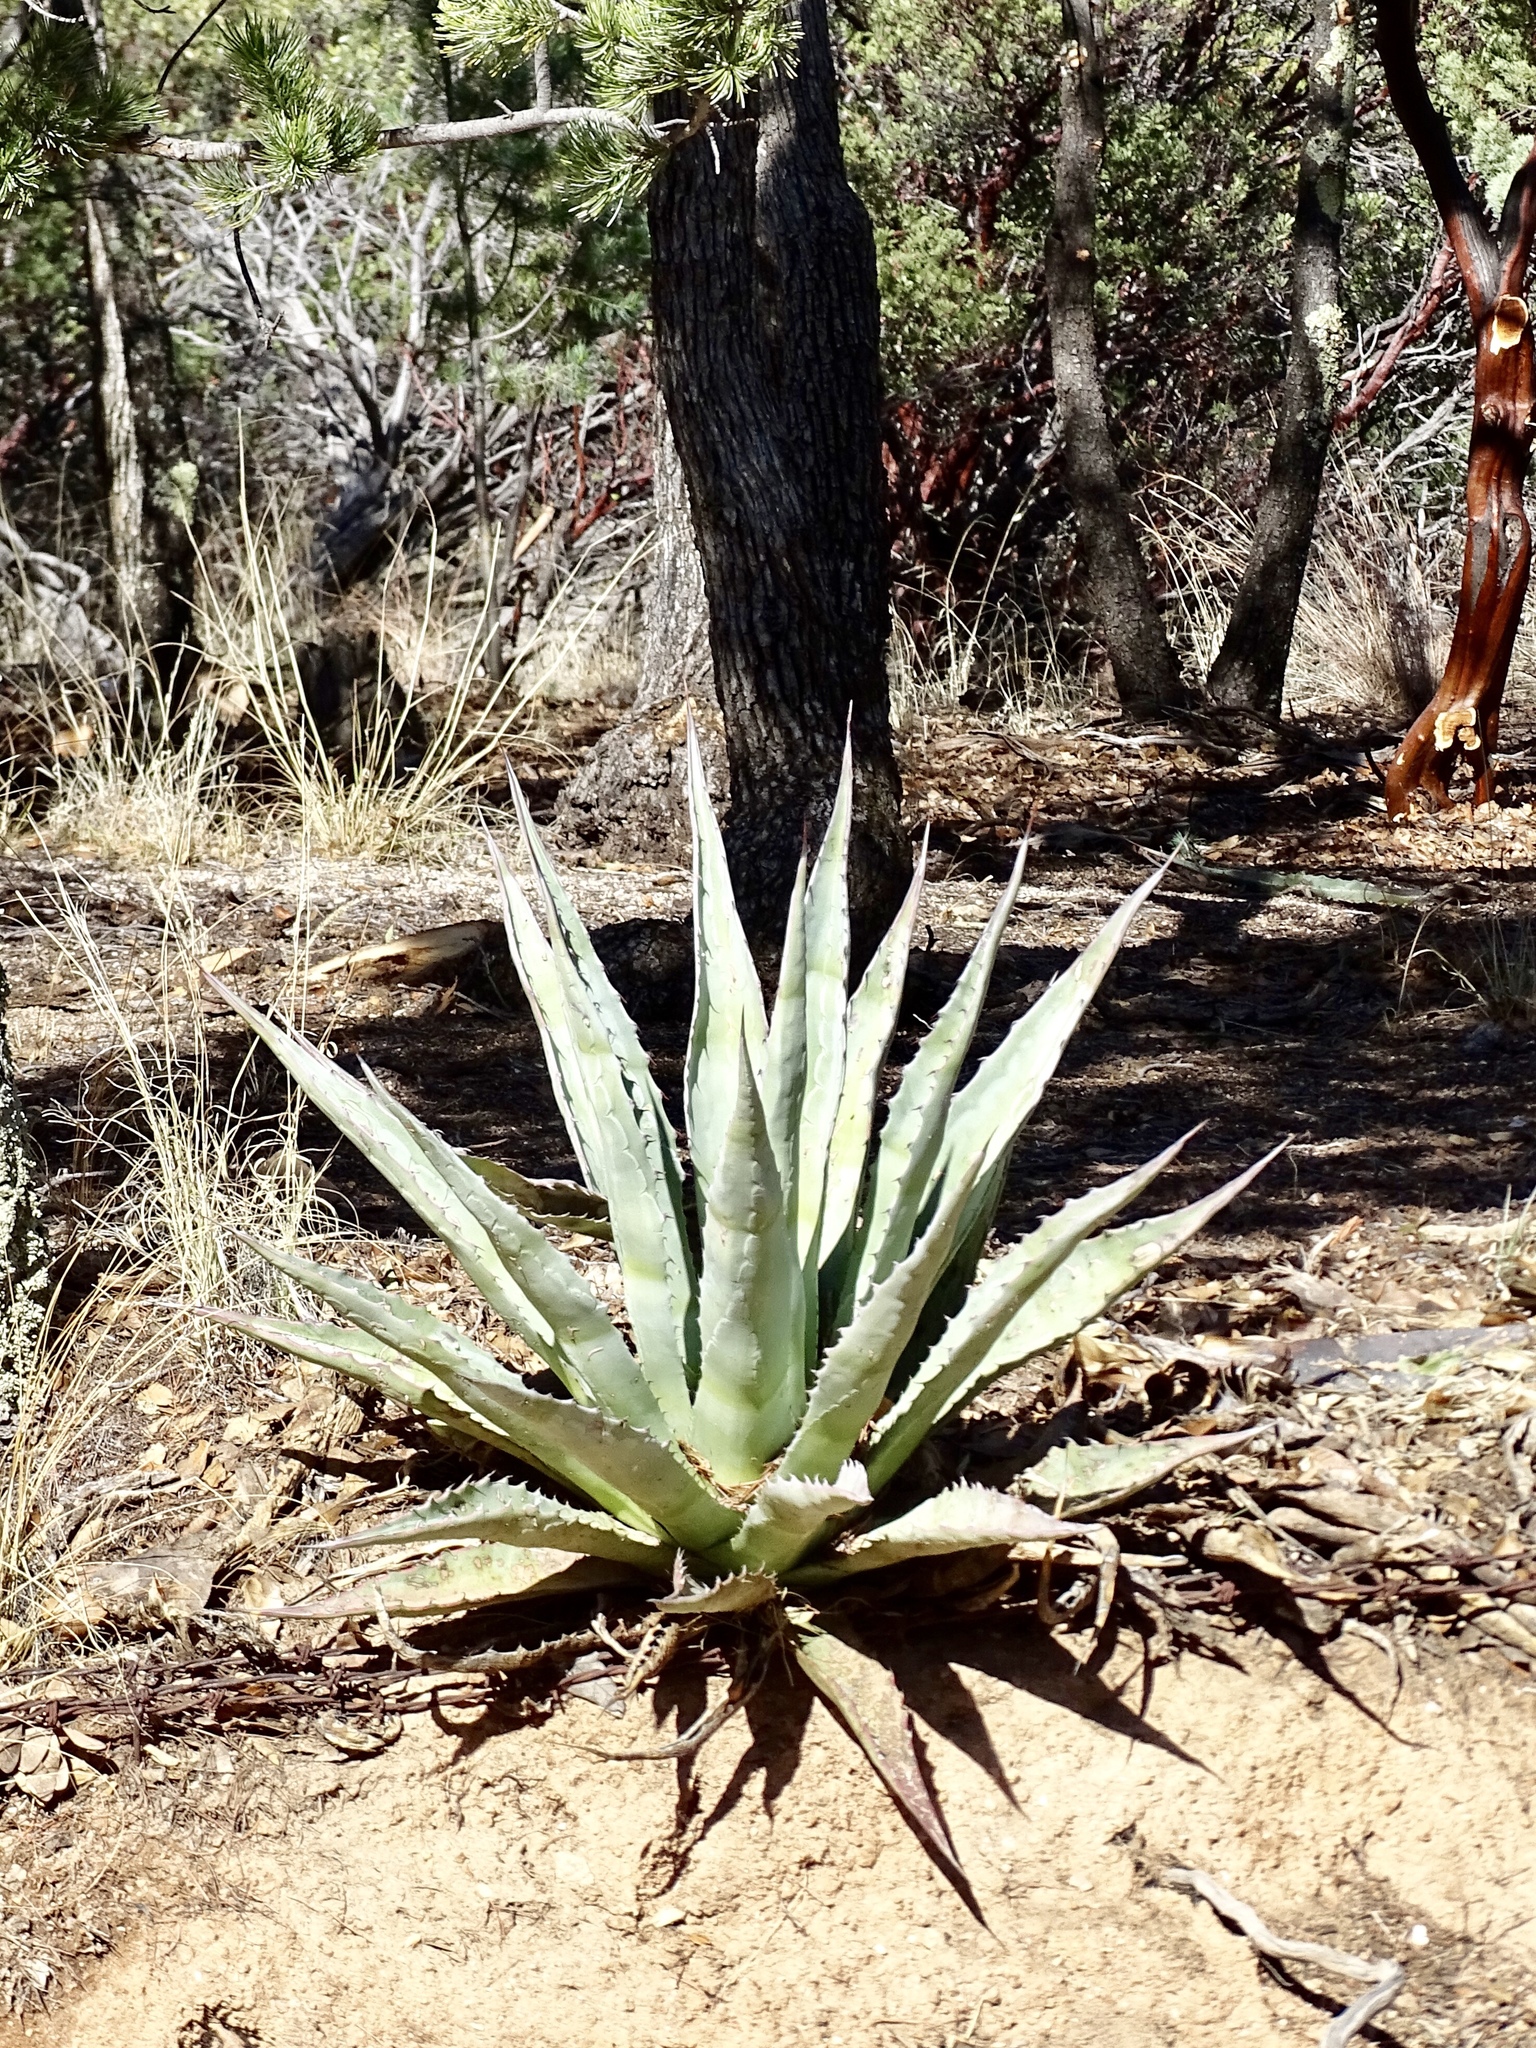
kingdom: Plantae
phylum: Tracheophyta
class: Liliopsida
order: Asparagales
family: Asparagaceae
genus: Agave
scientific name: Agave palmeri
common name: Palmer agave
